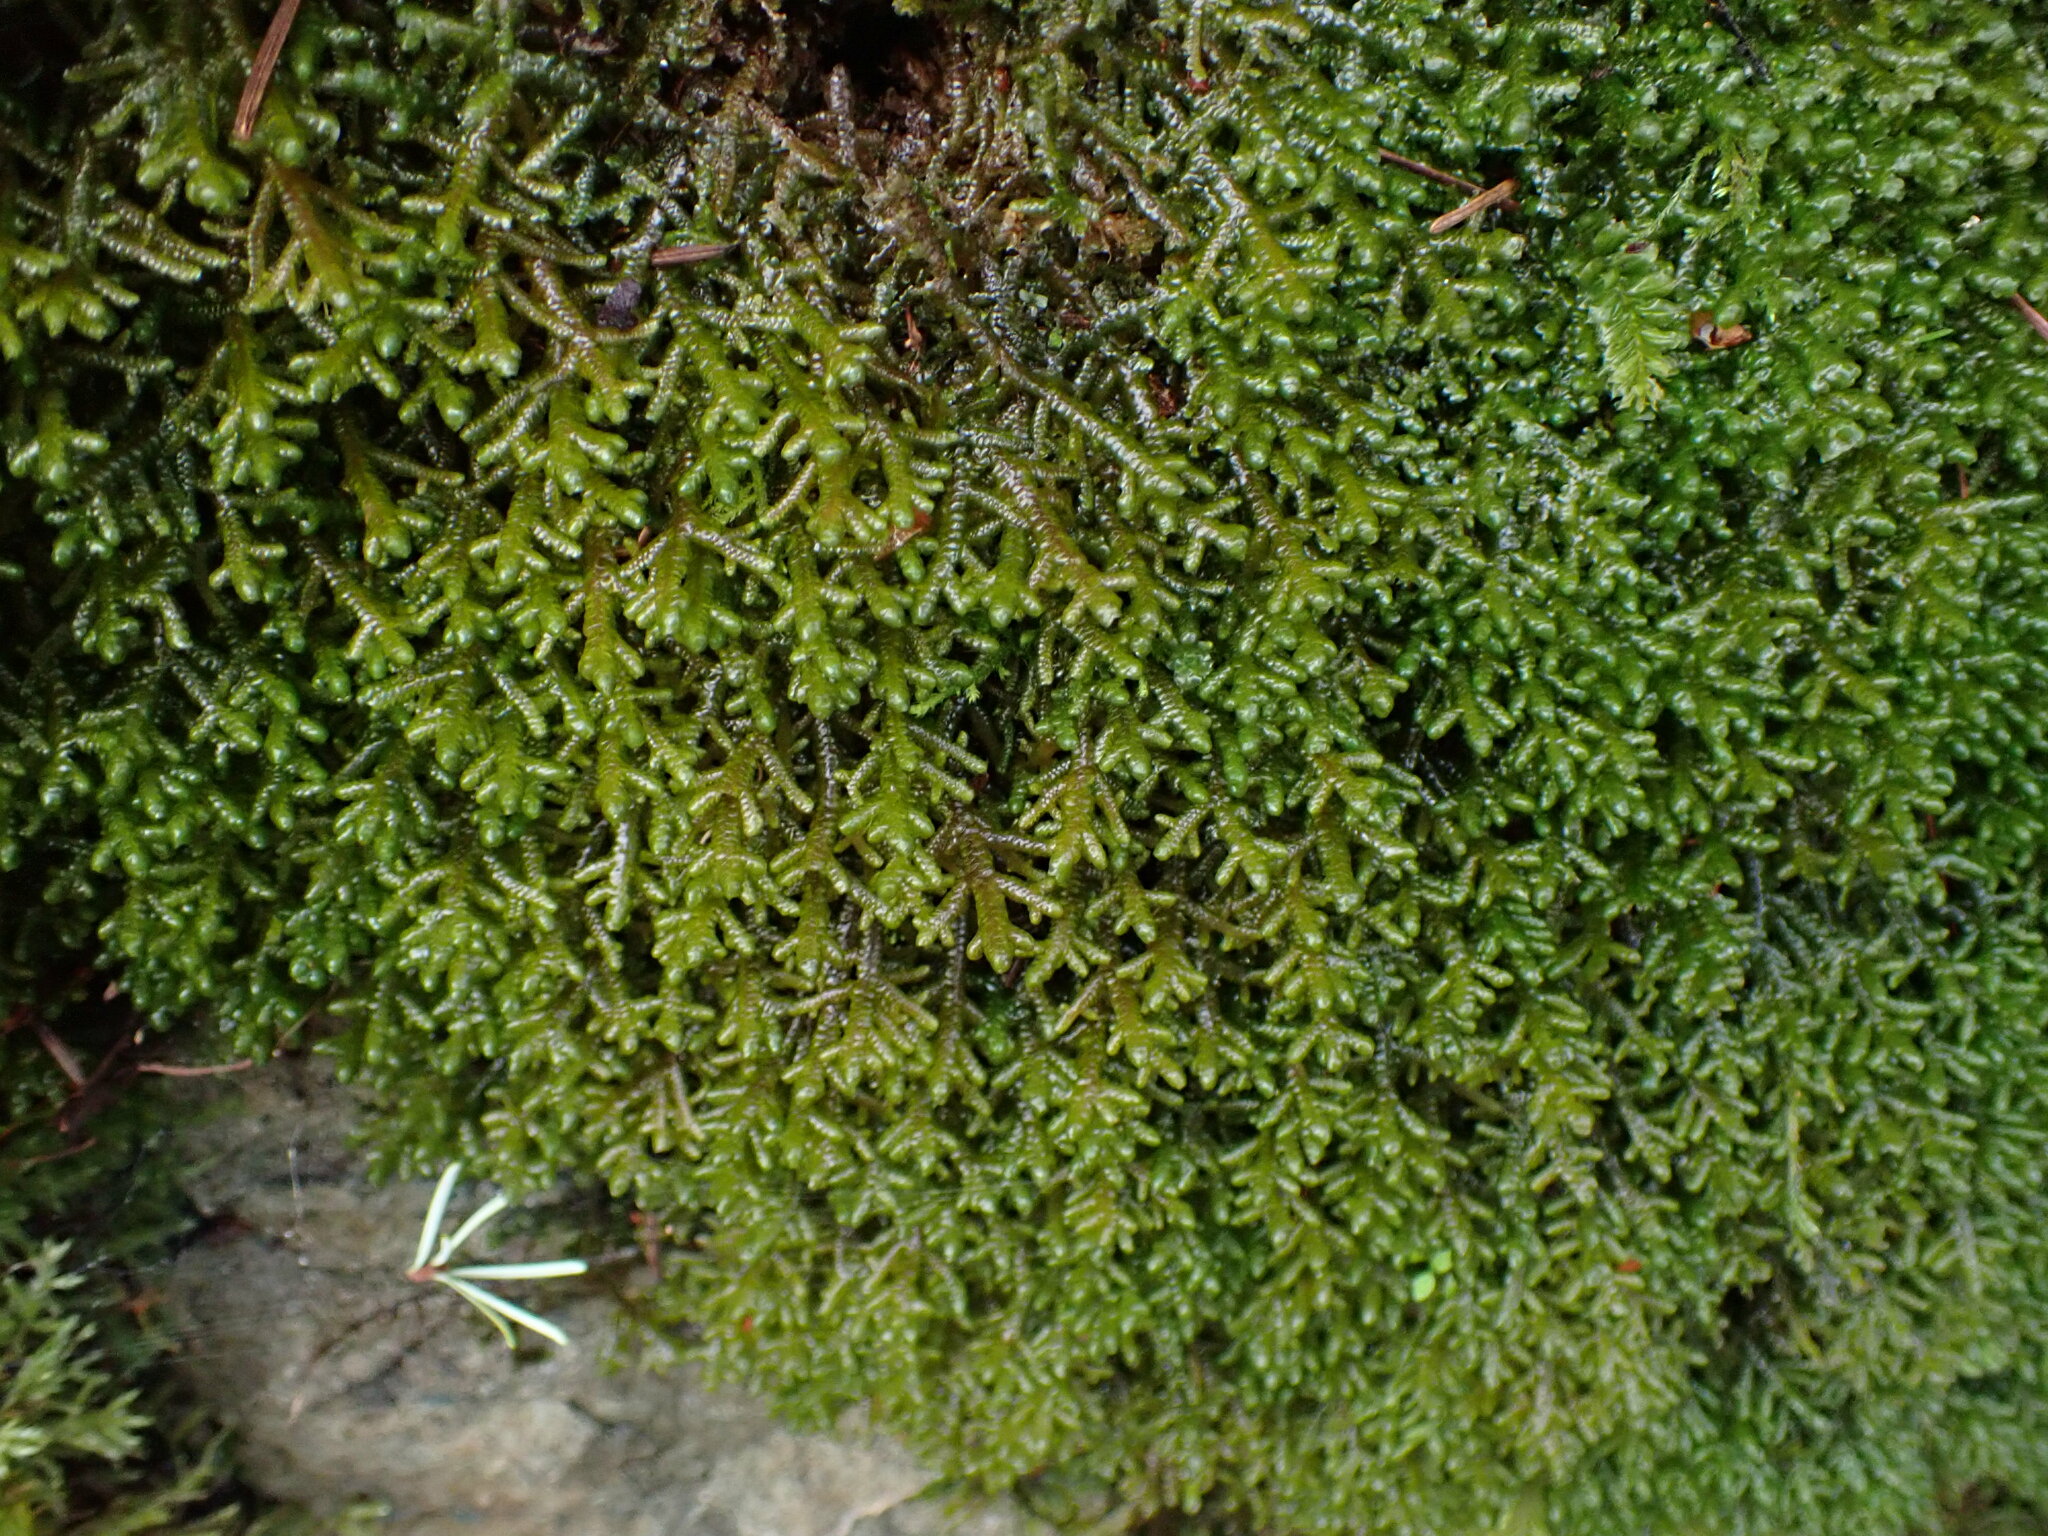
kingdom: Plantae
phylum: Marchantiophyta
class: Jungermanniopsida
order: Porellales
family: Porellaceae
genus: Porella
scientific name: Porella roellii
